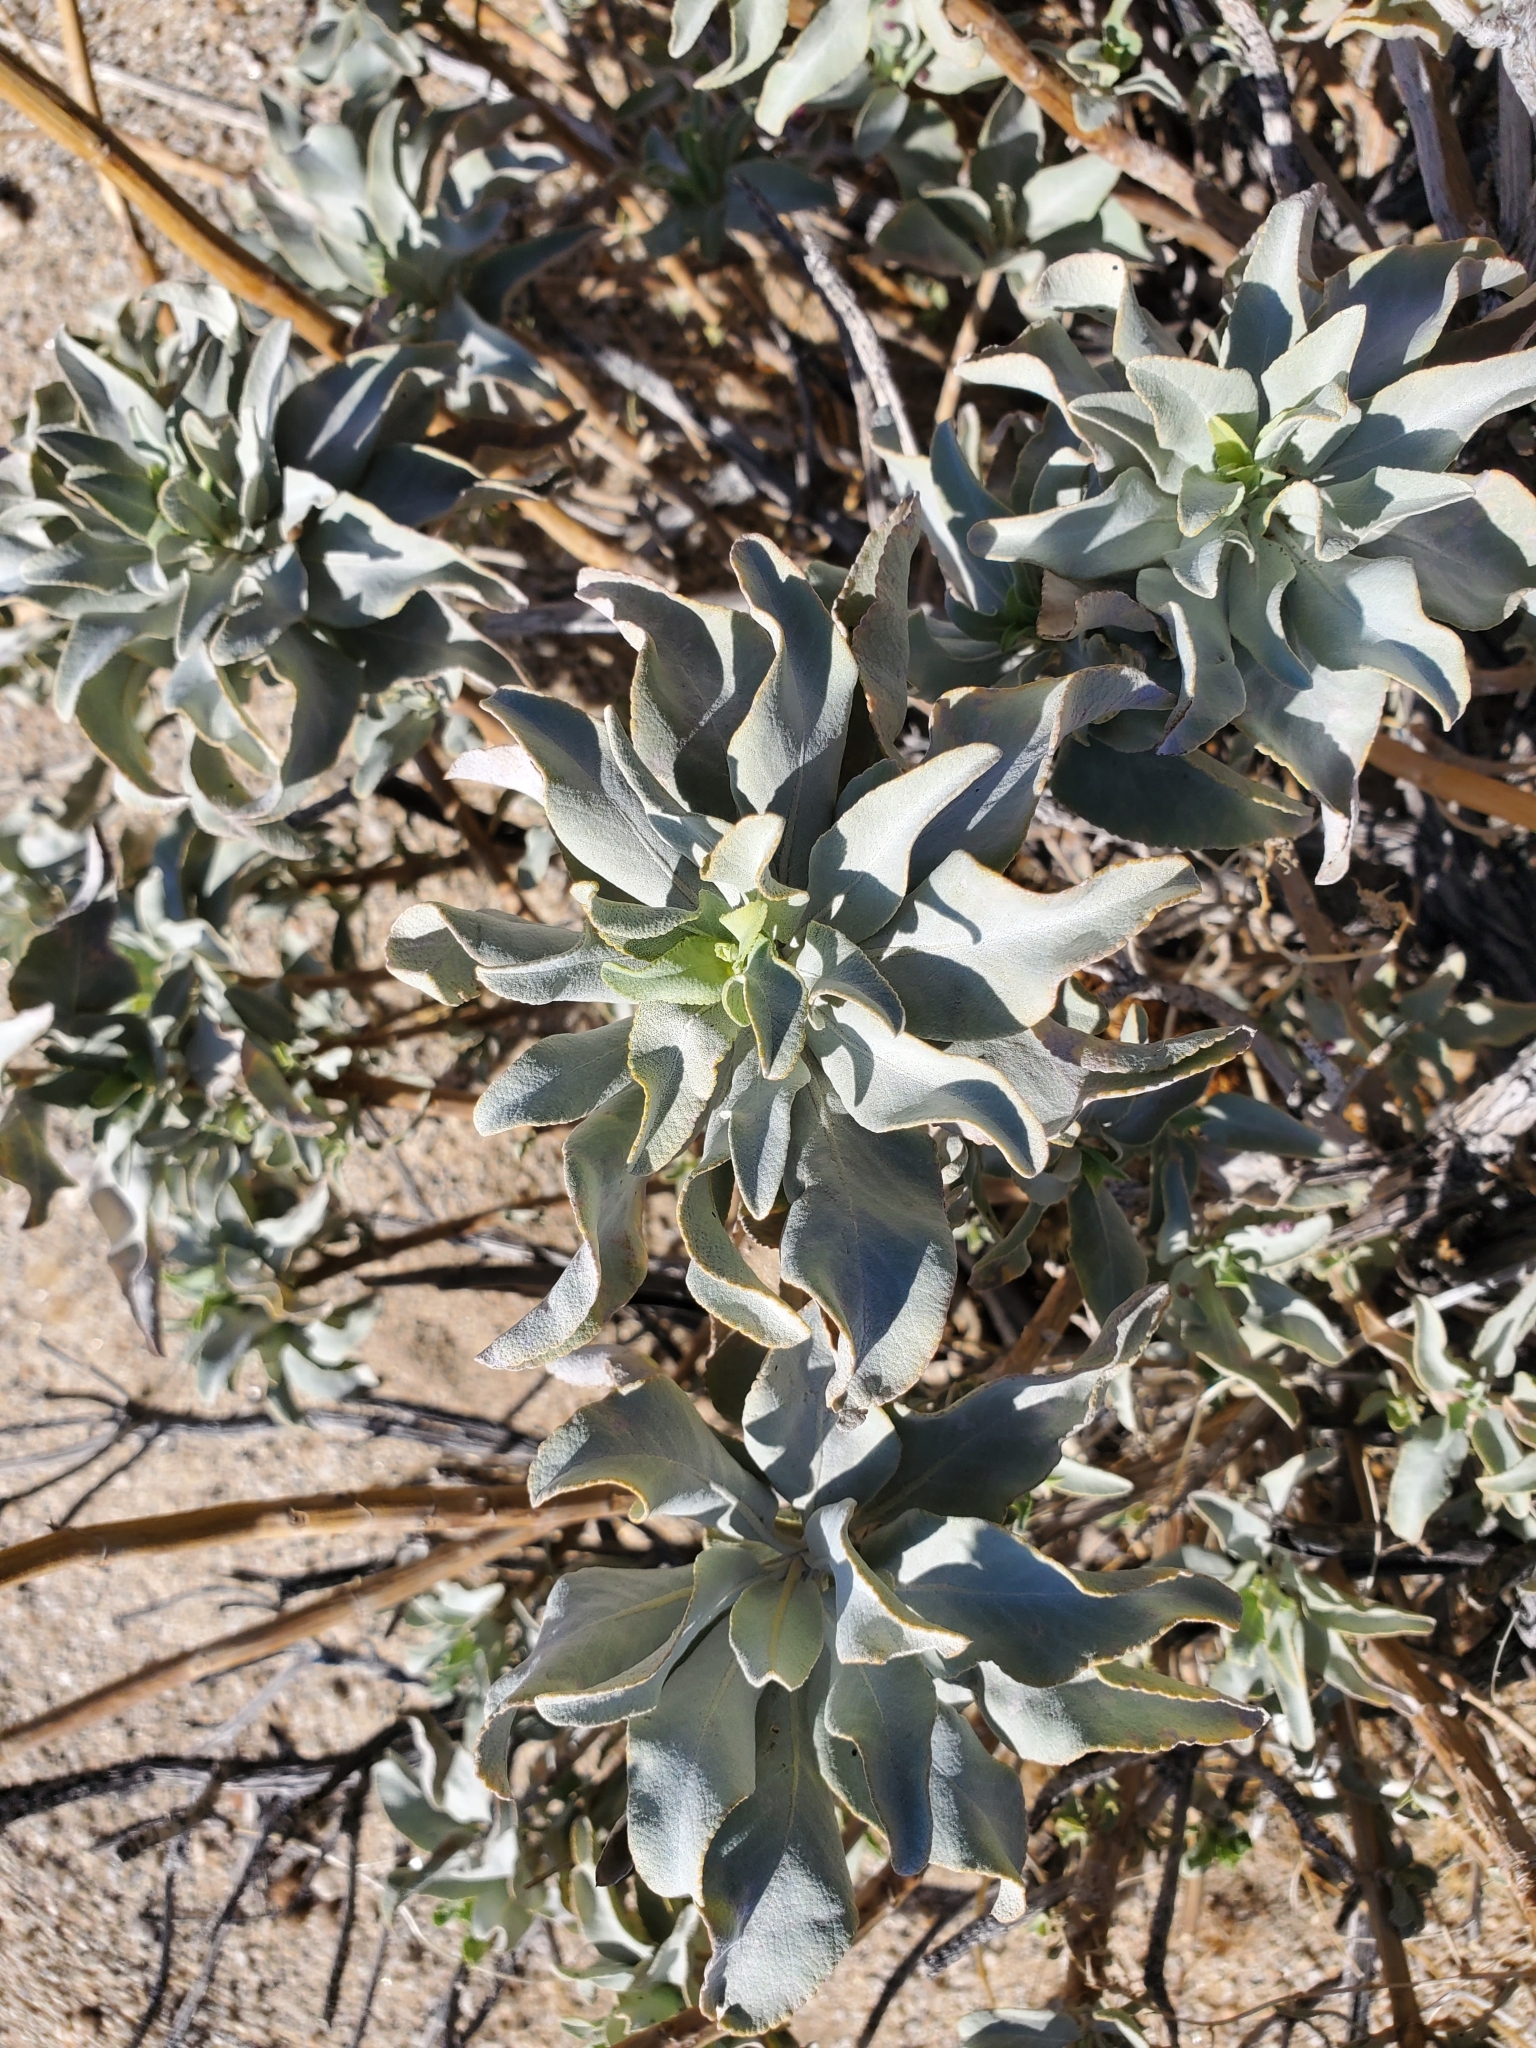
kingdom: Plantae
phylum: Tracheophyta
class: Magnoliopsida
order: Lamiales
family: Lamiaceae
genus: Salvia
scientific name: Salvia vaseyi
